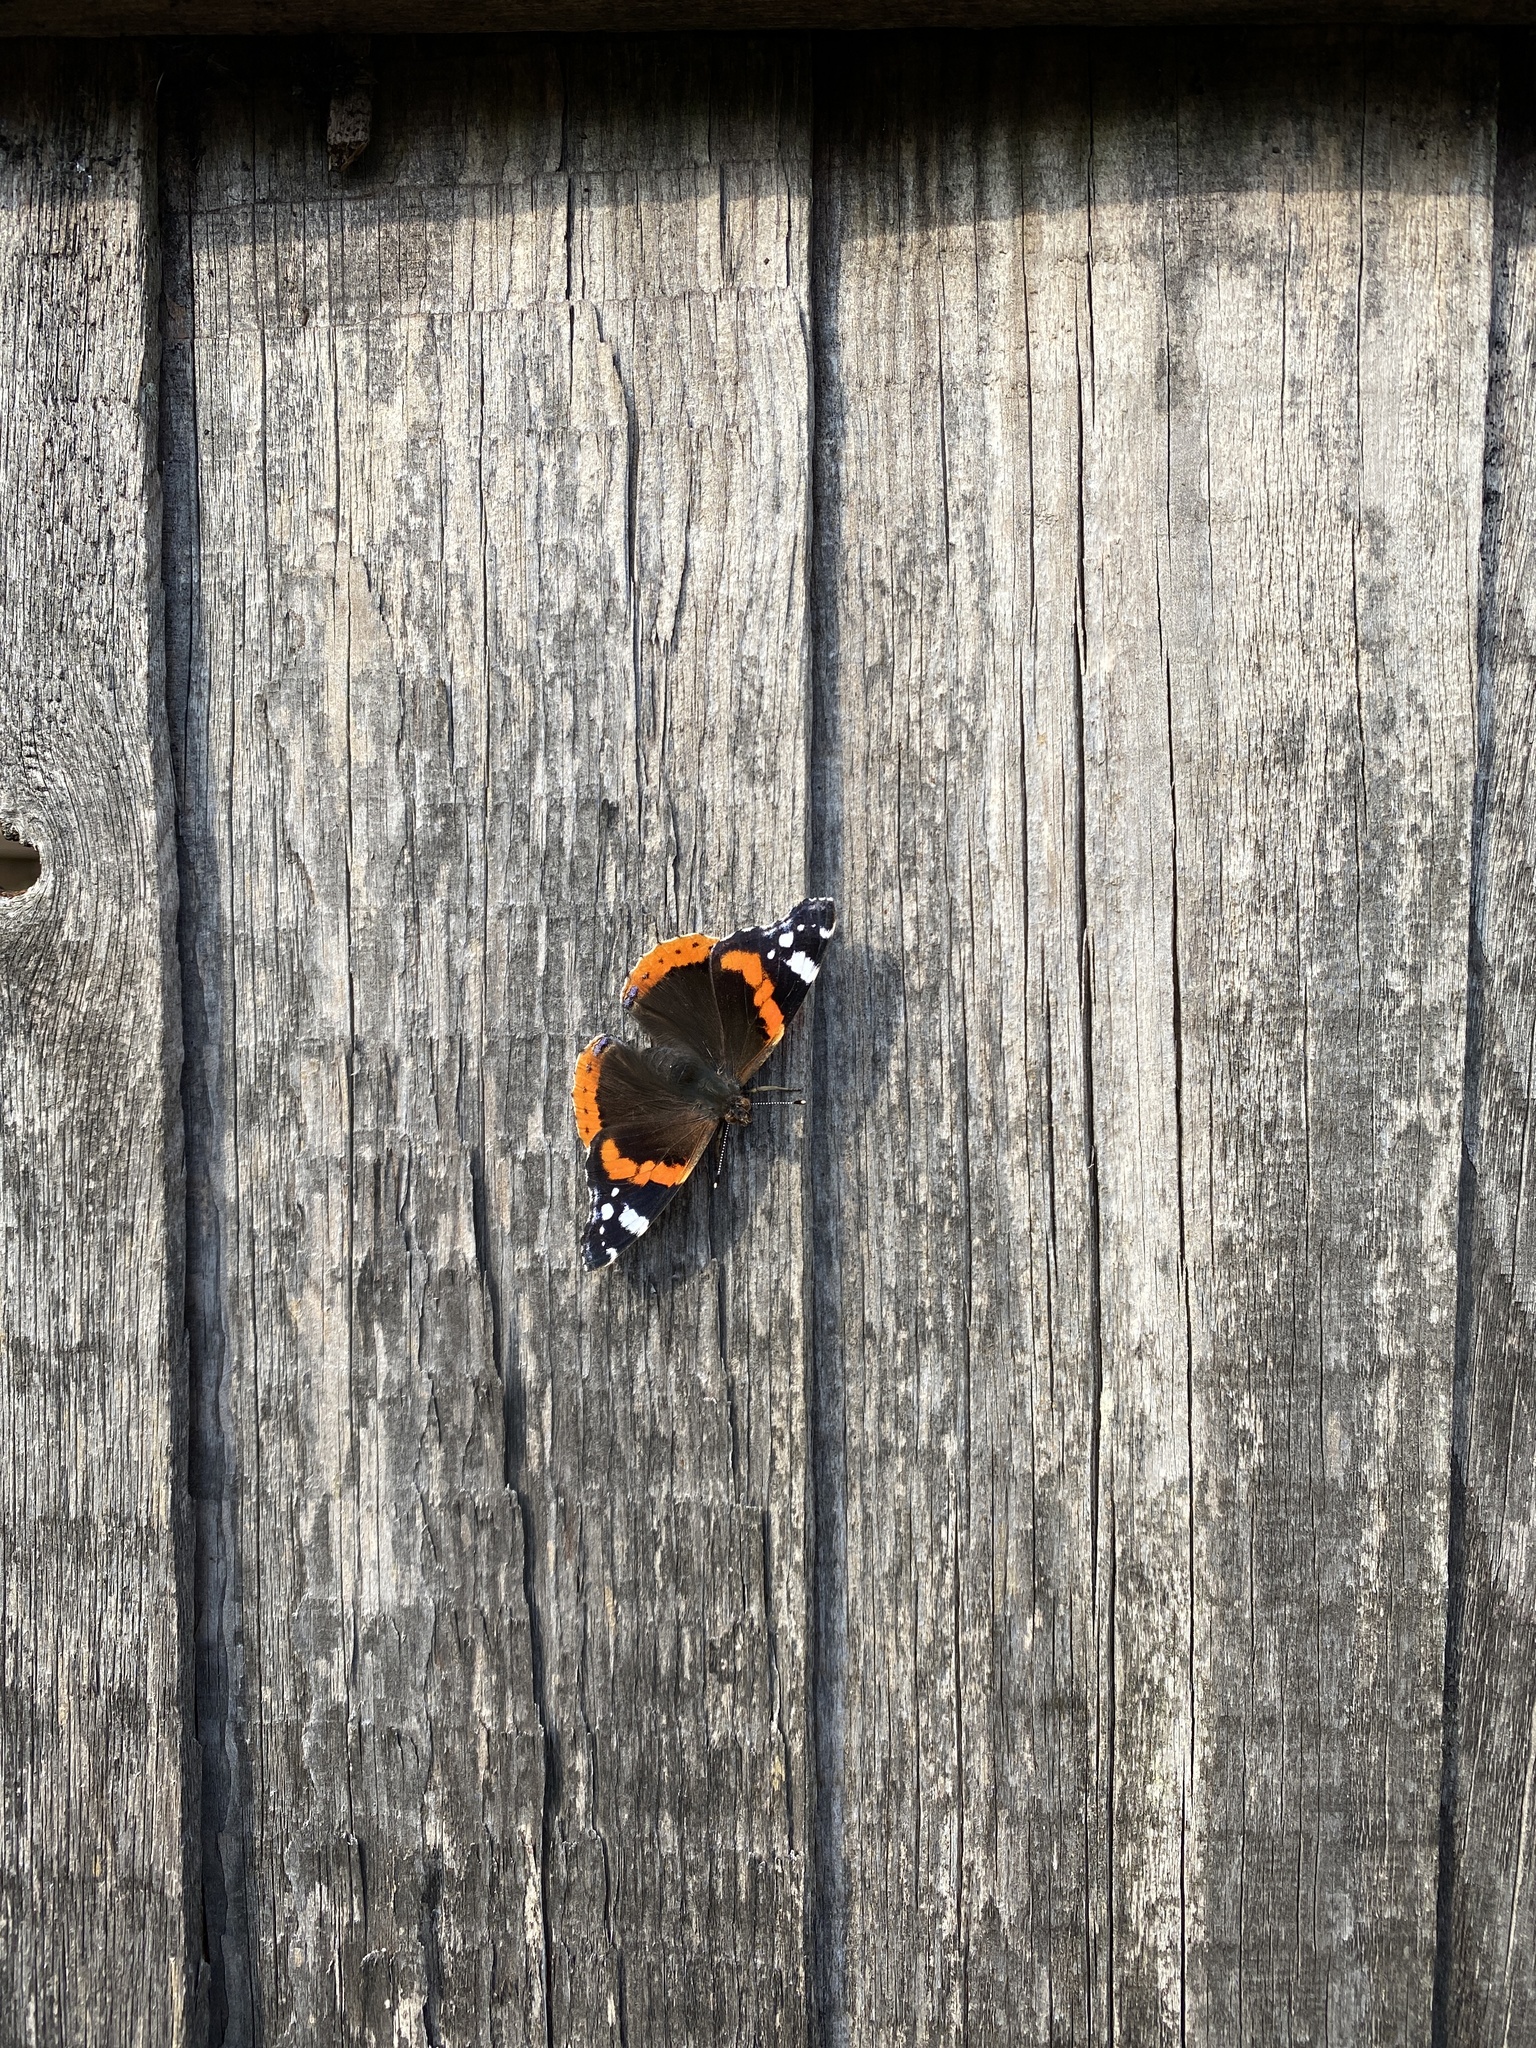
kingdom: Animalia
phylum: Arthropoda
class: Insecta
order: Lepidoptera
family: Nymphalidae
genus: Vanessa
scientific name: Vanessa atalanta
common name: Red admiral
